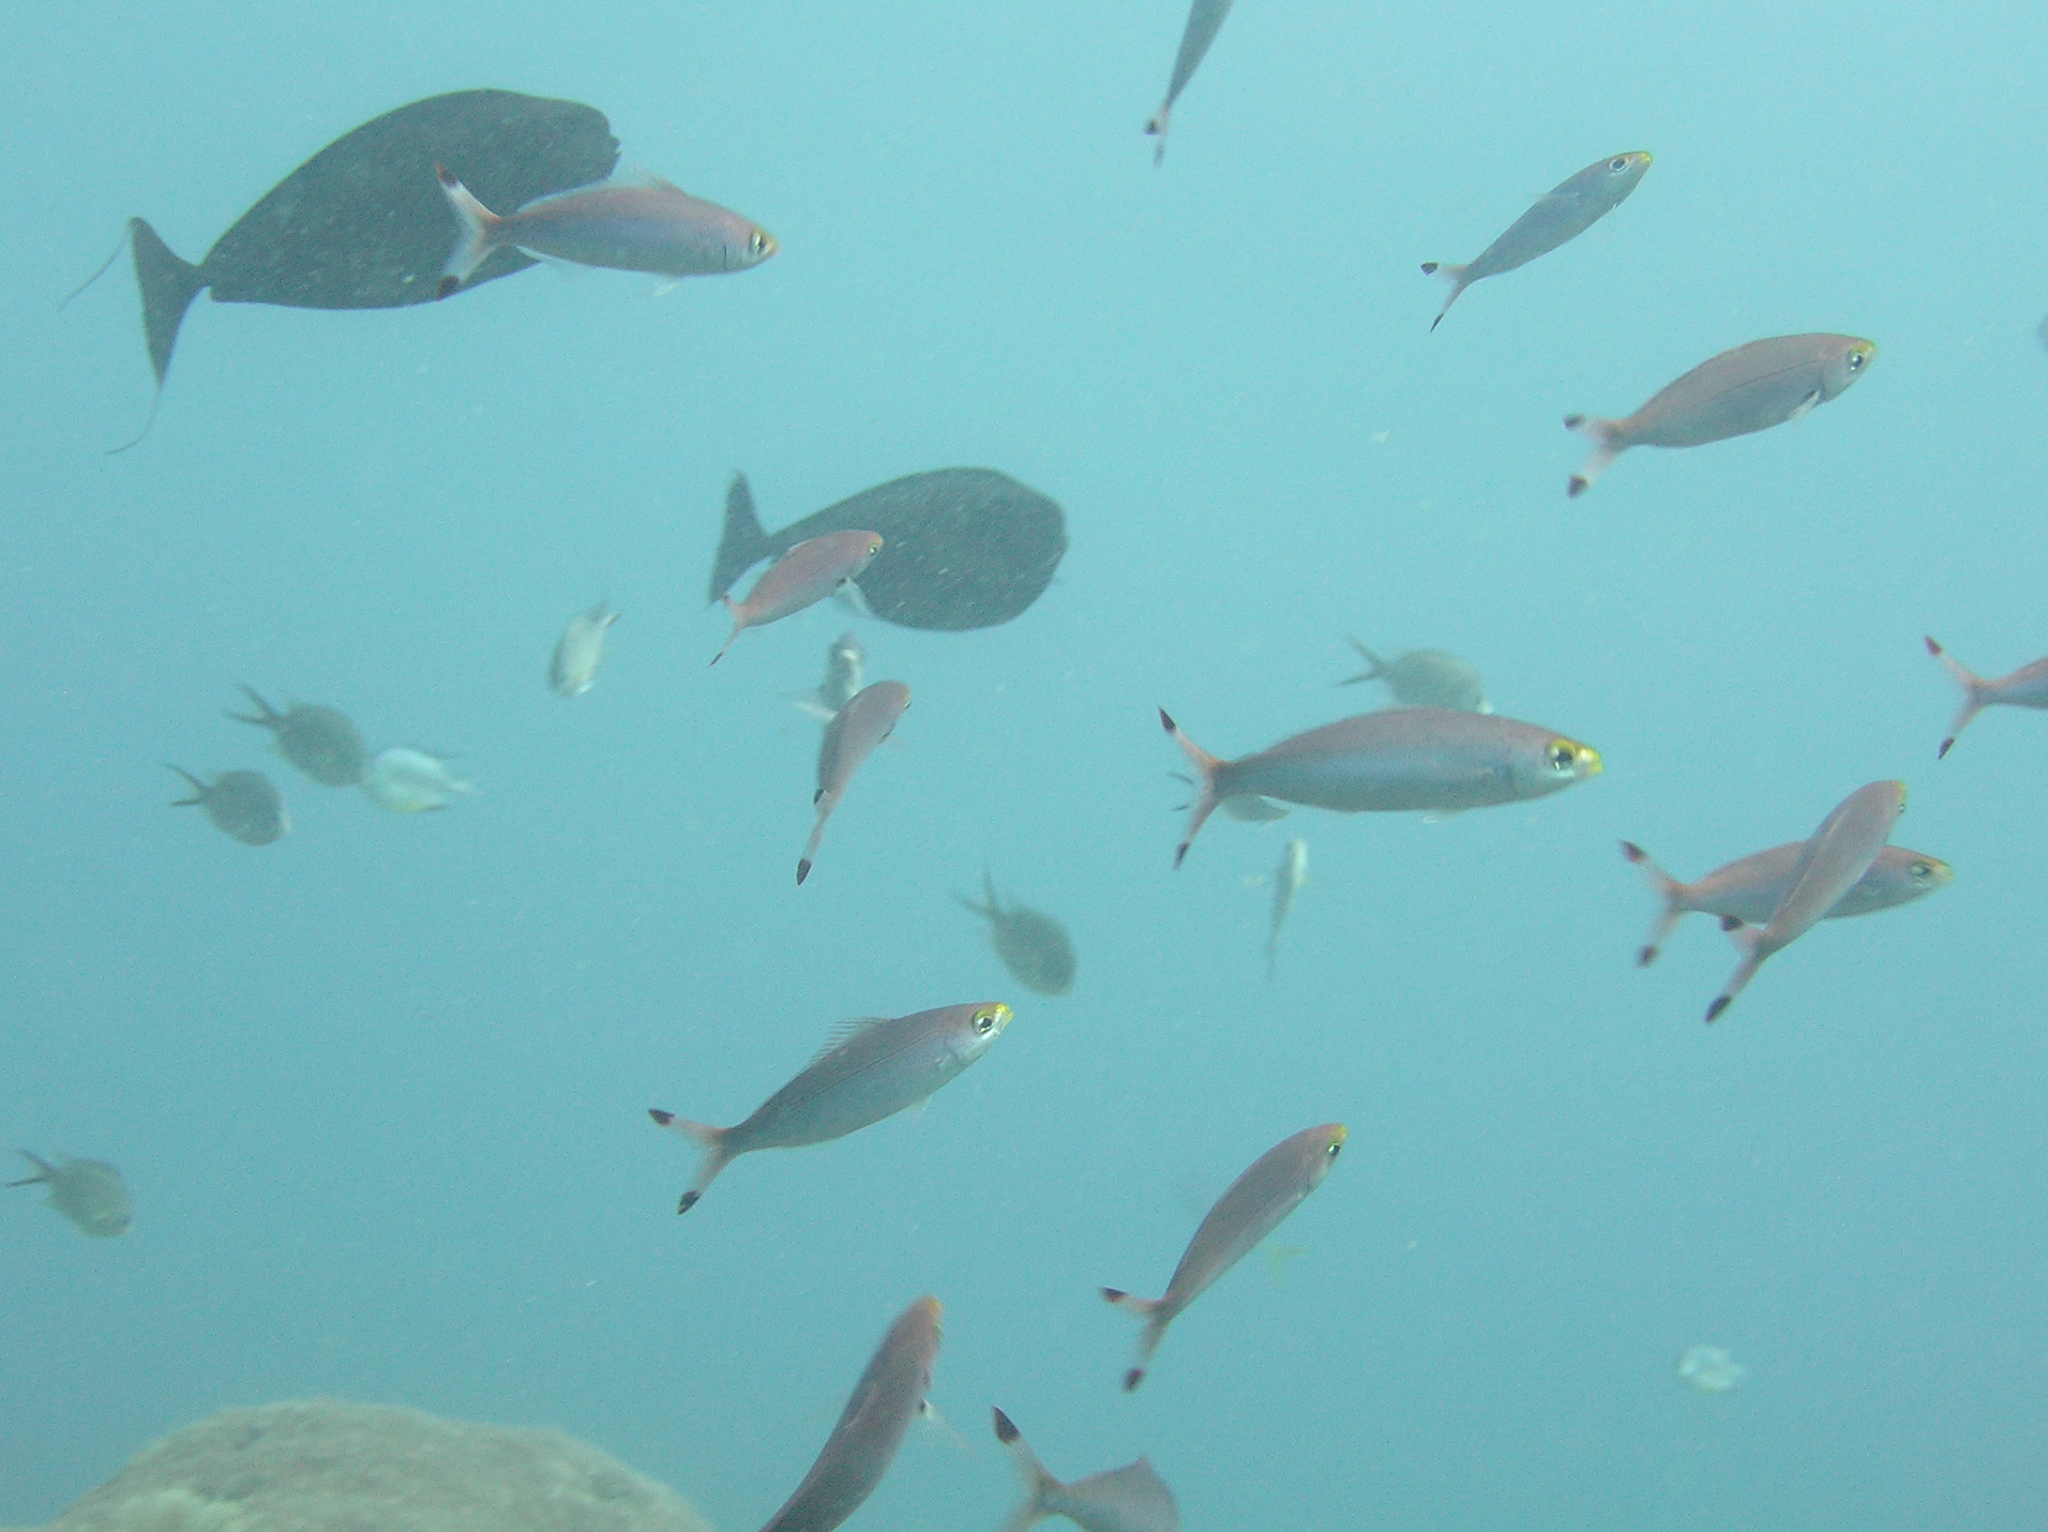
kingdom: Animalia
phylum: Chordata
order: Perciformes
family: Caesionidae
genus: Pterocaesio
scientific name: Pterocaesio pisang
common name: Banana fusilier
